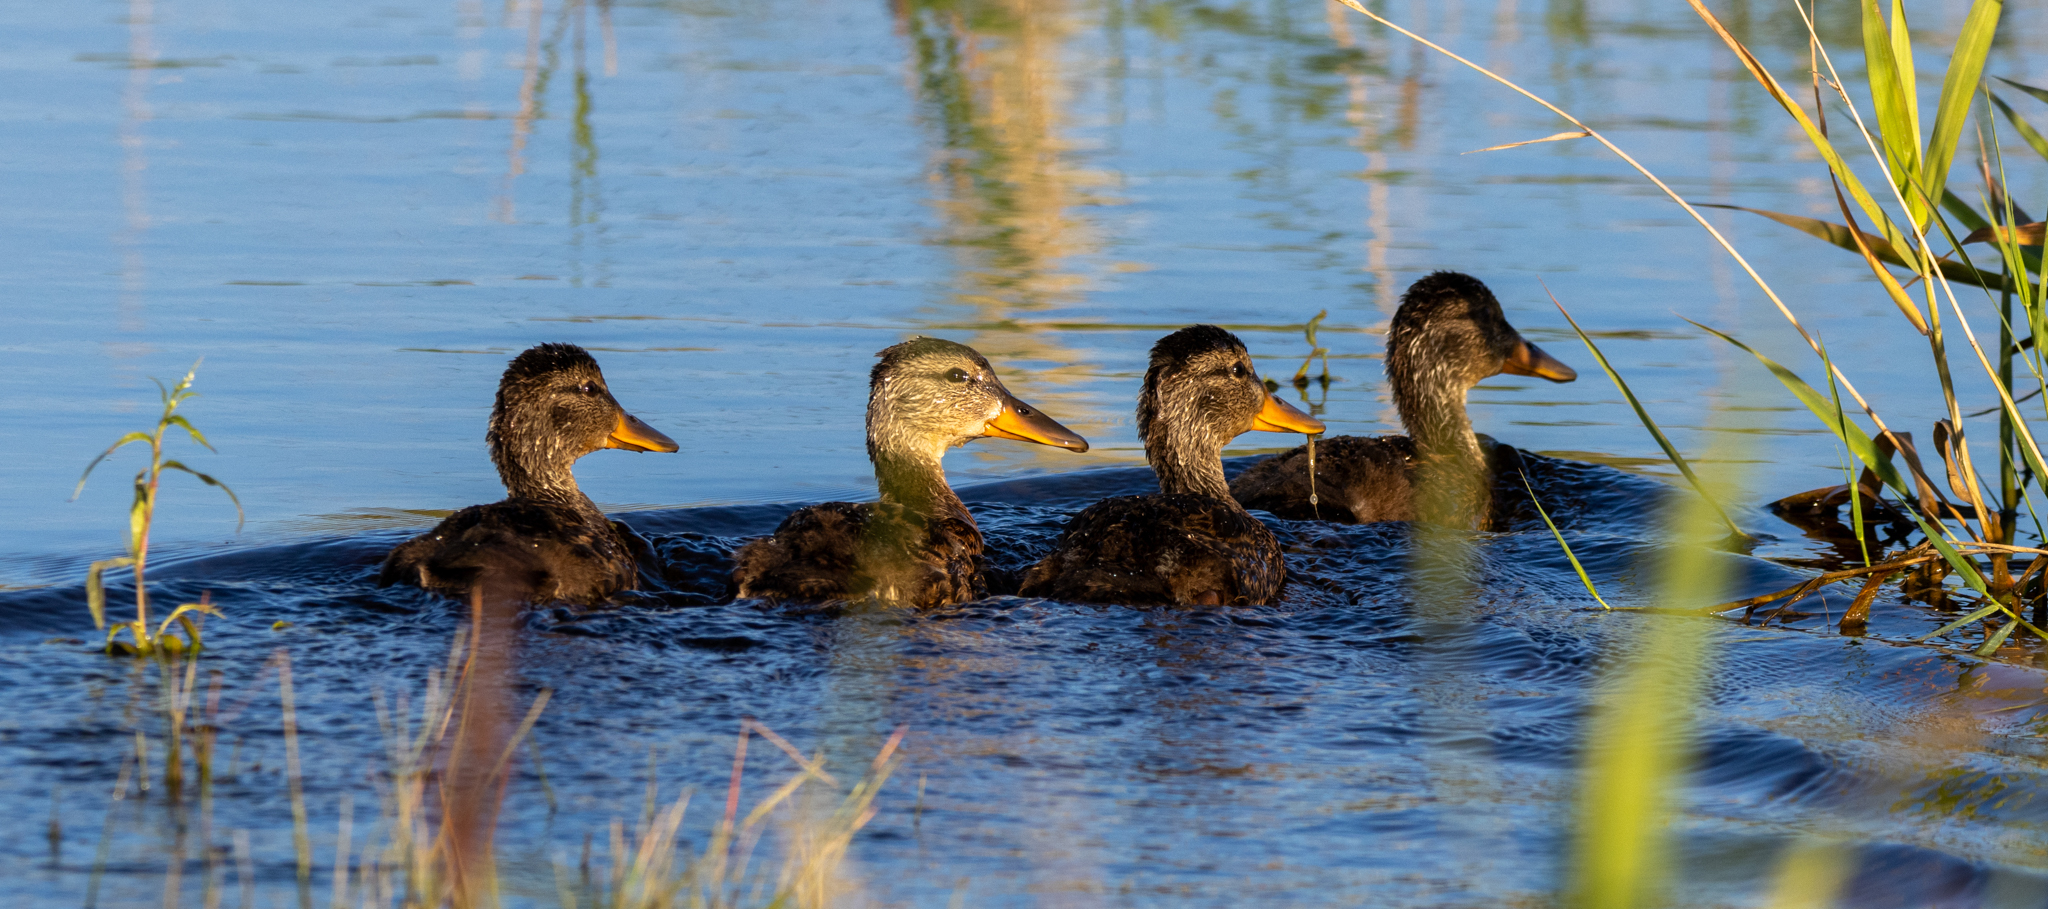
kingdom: Animalia
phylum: Chordata
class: Aves
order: Anseriformes
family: Anatidae
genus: Anas
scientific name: Anas platyrhynchos
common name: Mallard
